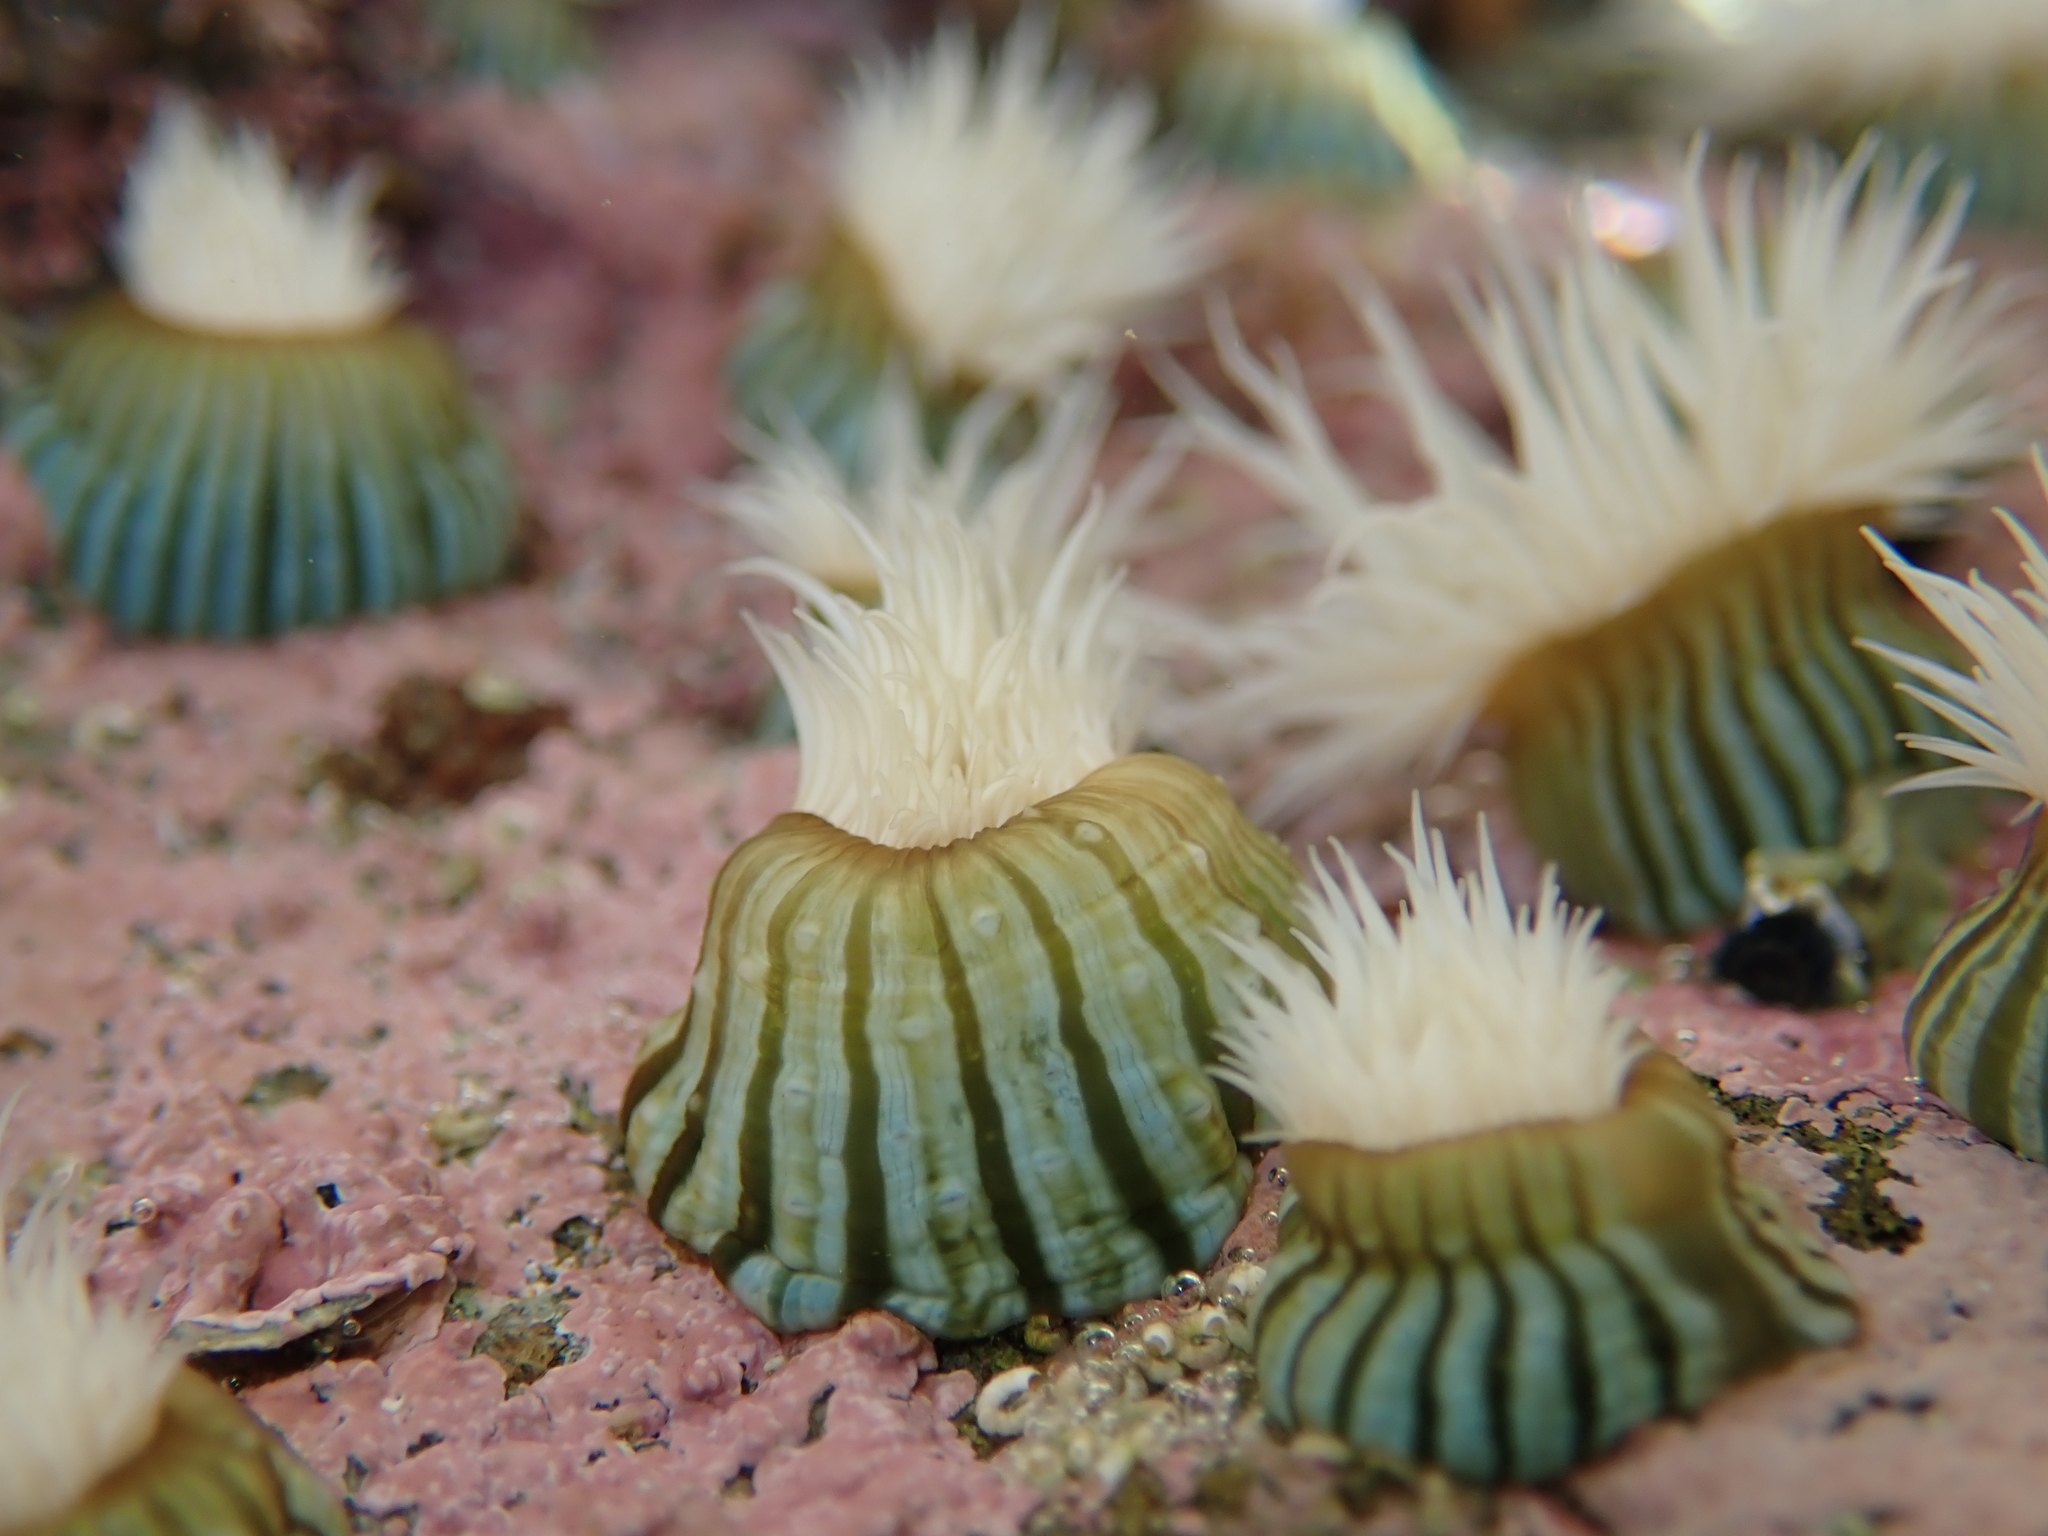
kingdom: Animalia
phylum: Cnidaria
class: Anthozoa
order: Actiniaria
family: Sagartiidae
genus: Anthothoe
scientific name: Anthothoe albocincta
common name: Orange striped anemone
